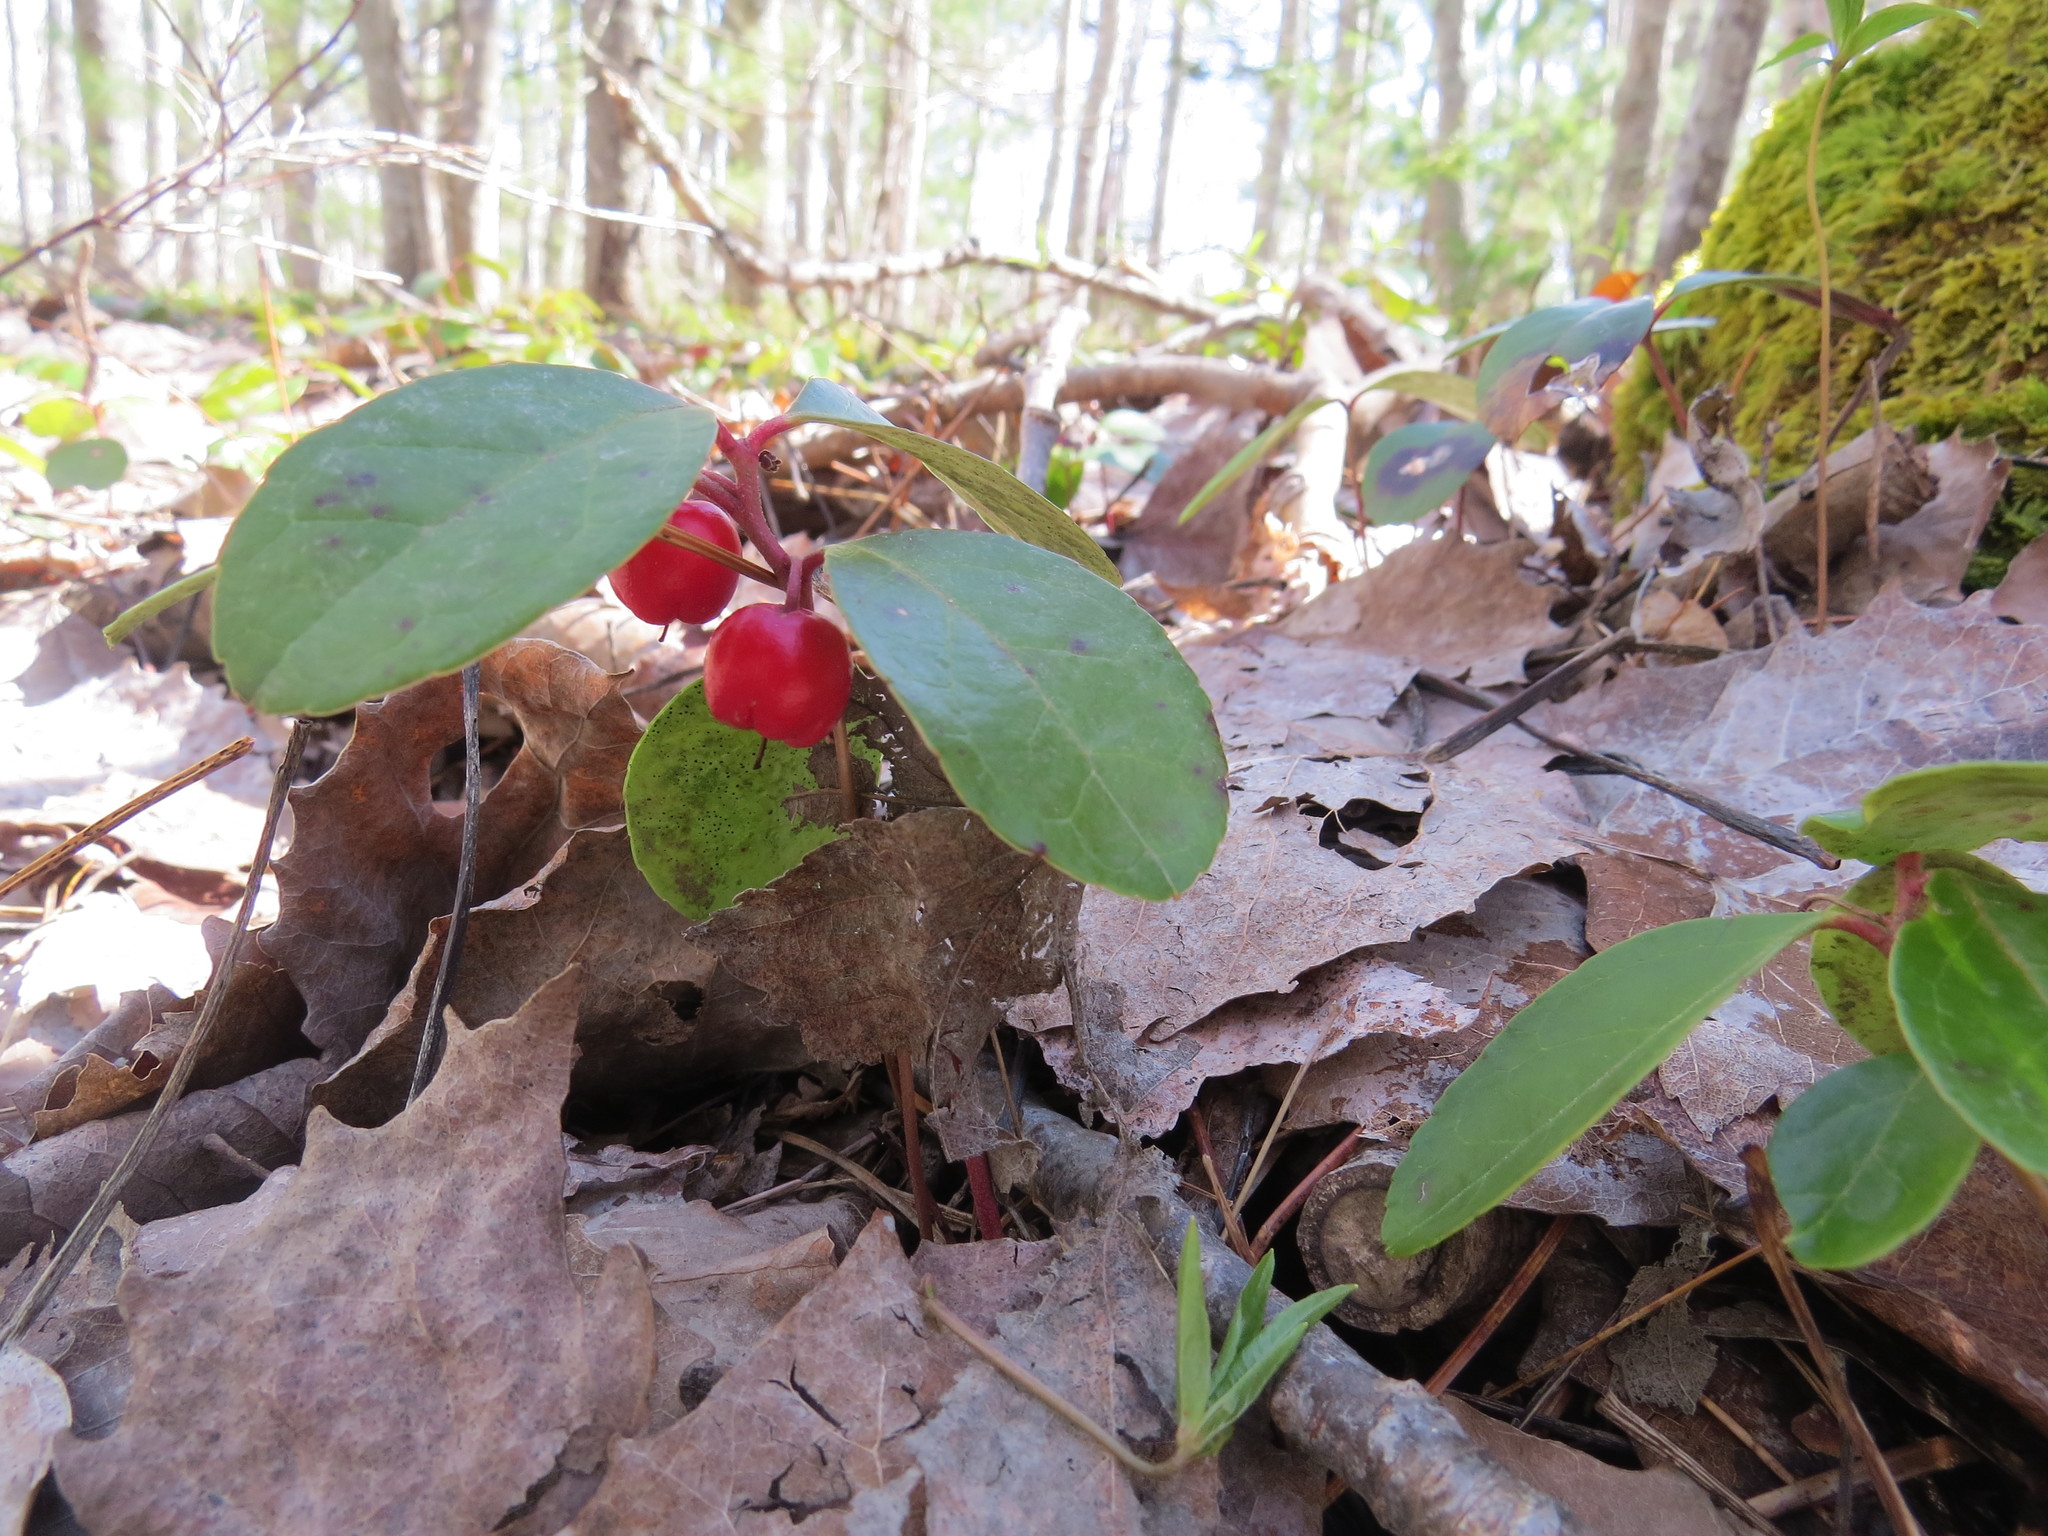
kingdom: Plantae
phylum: Tracheophyta
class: Magnoliopsida
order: Ericales
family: Ericaceae
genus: Gaultheria
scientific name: Gaultheria procumbens
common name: Checkerberry
